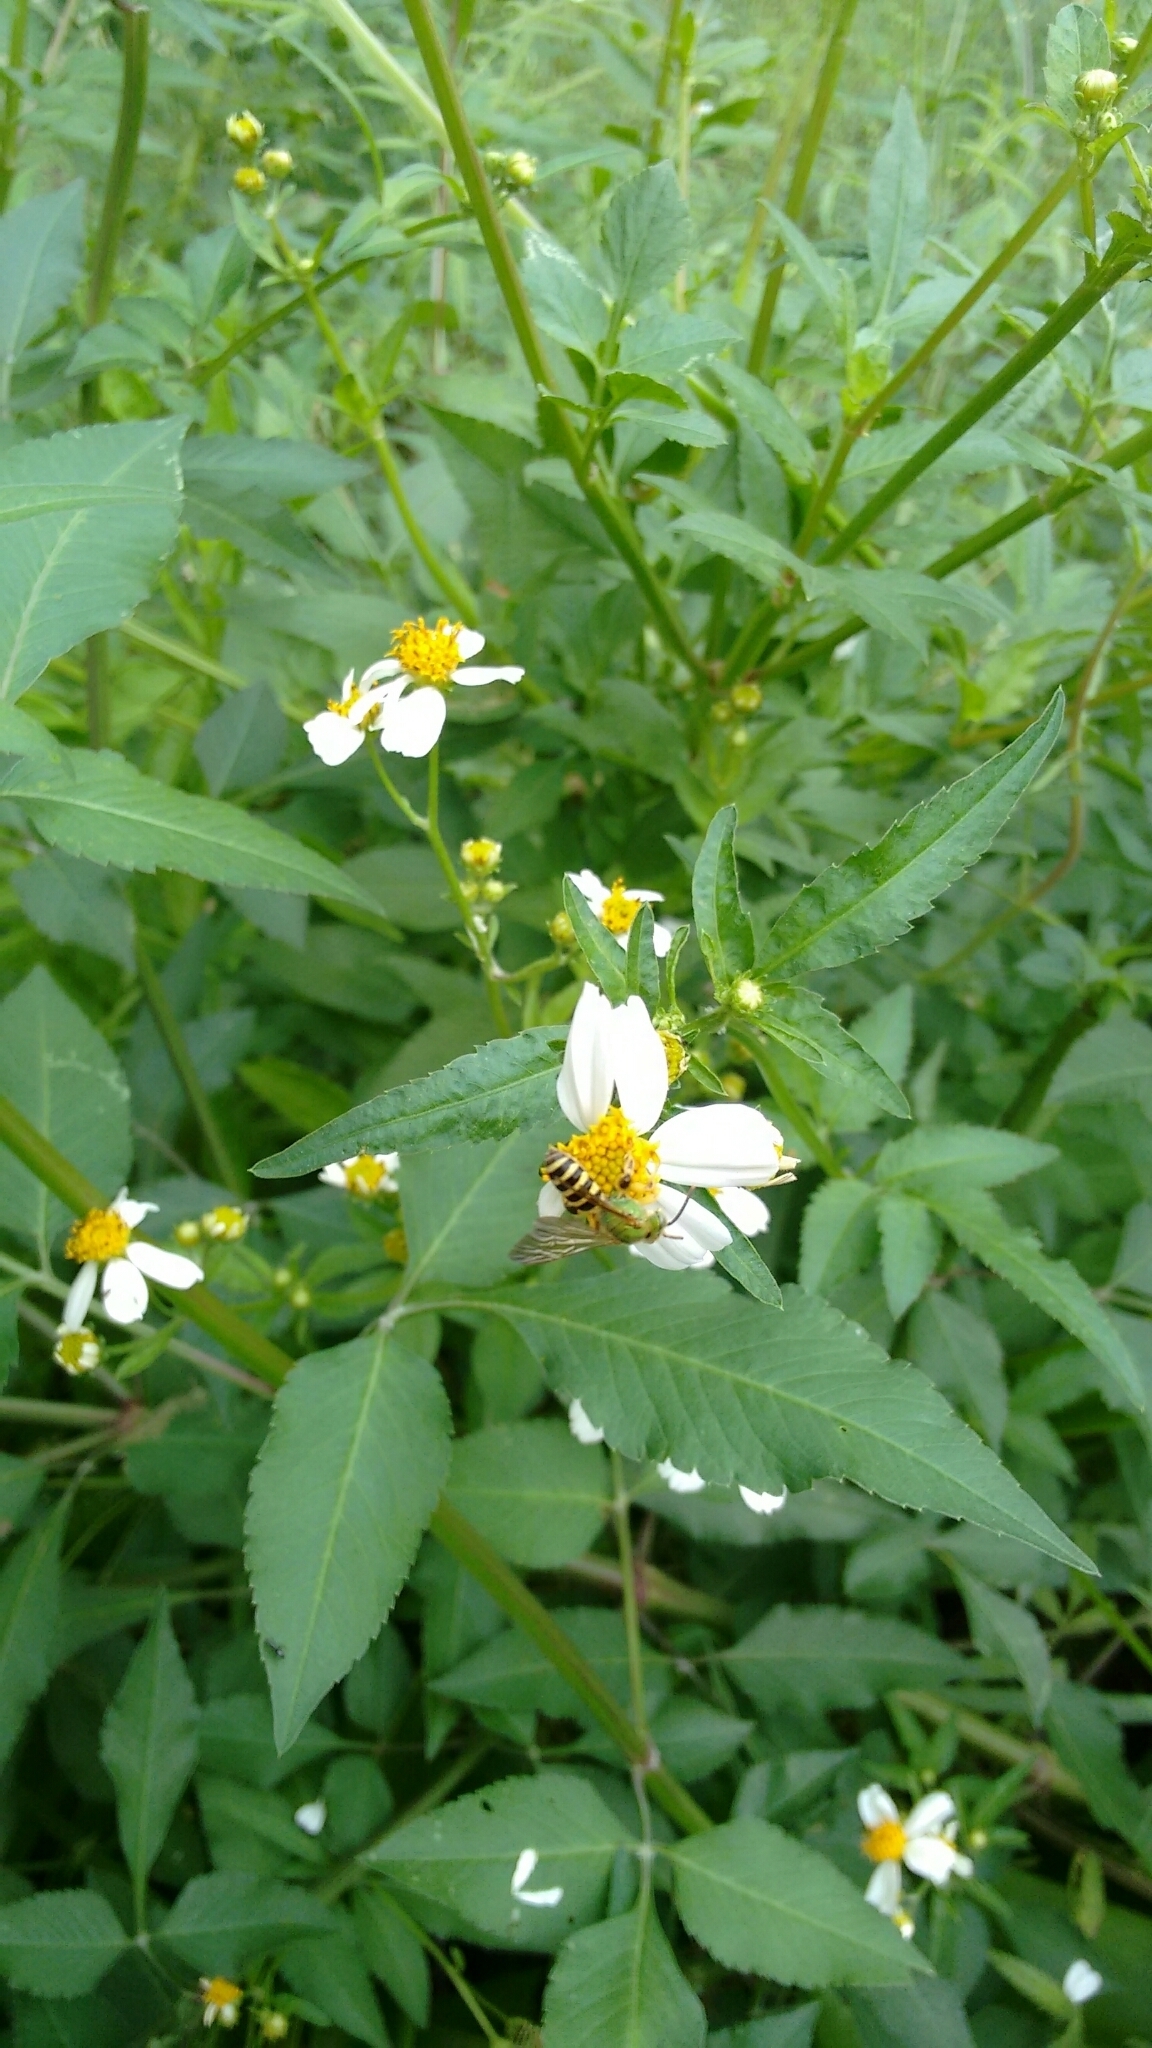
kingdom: Animalia
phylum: Arthropoda
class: Insecta
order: Hymenoptera
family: Halictidae
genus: Agapostemon
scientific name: Agapostemon splendens
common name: Brown-winged striped sweat bee
